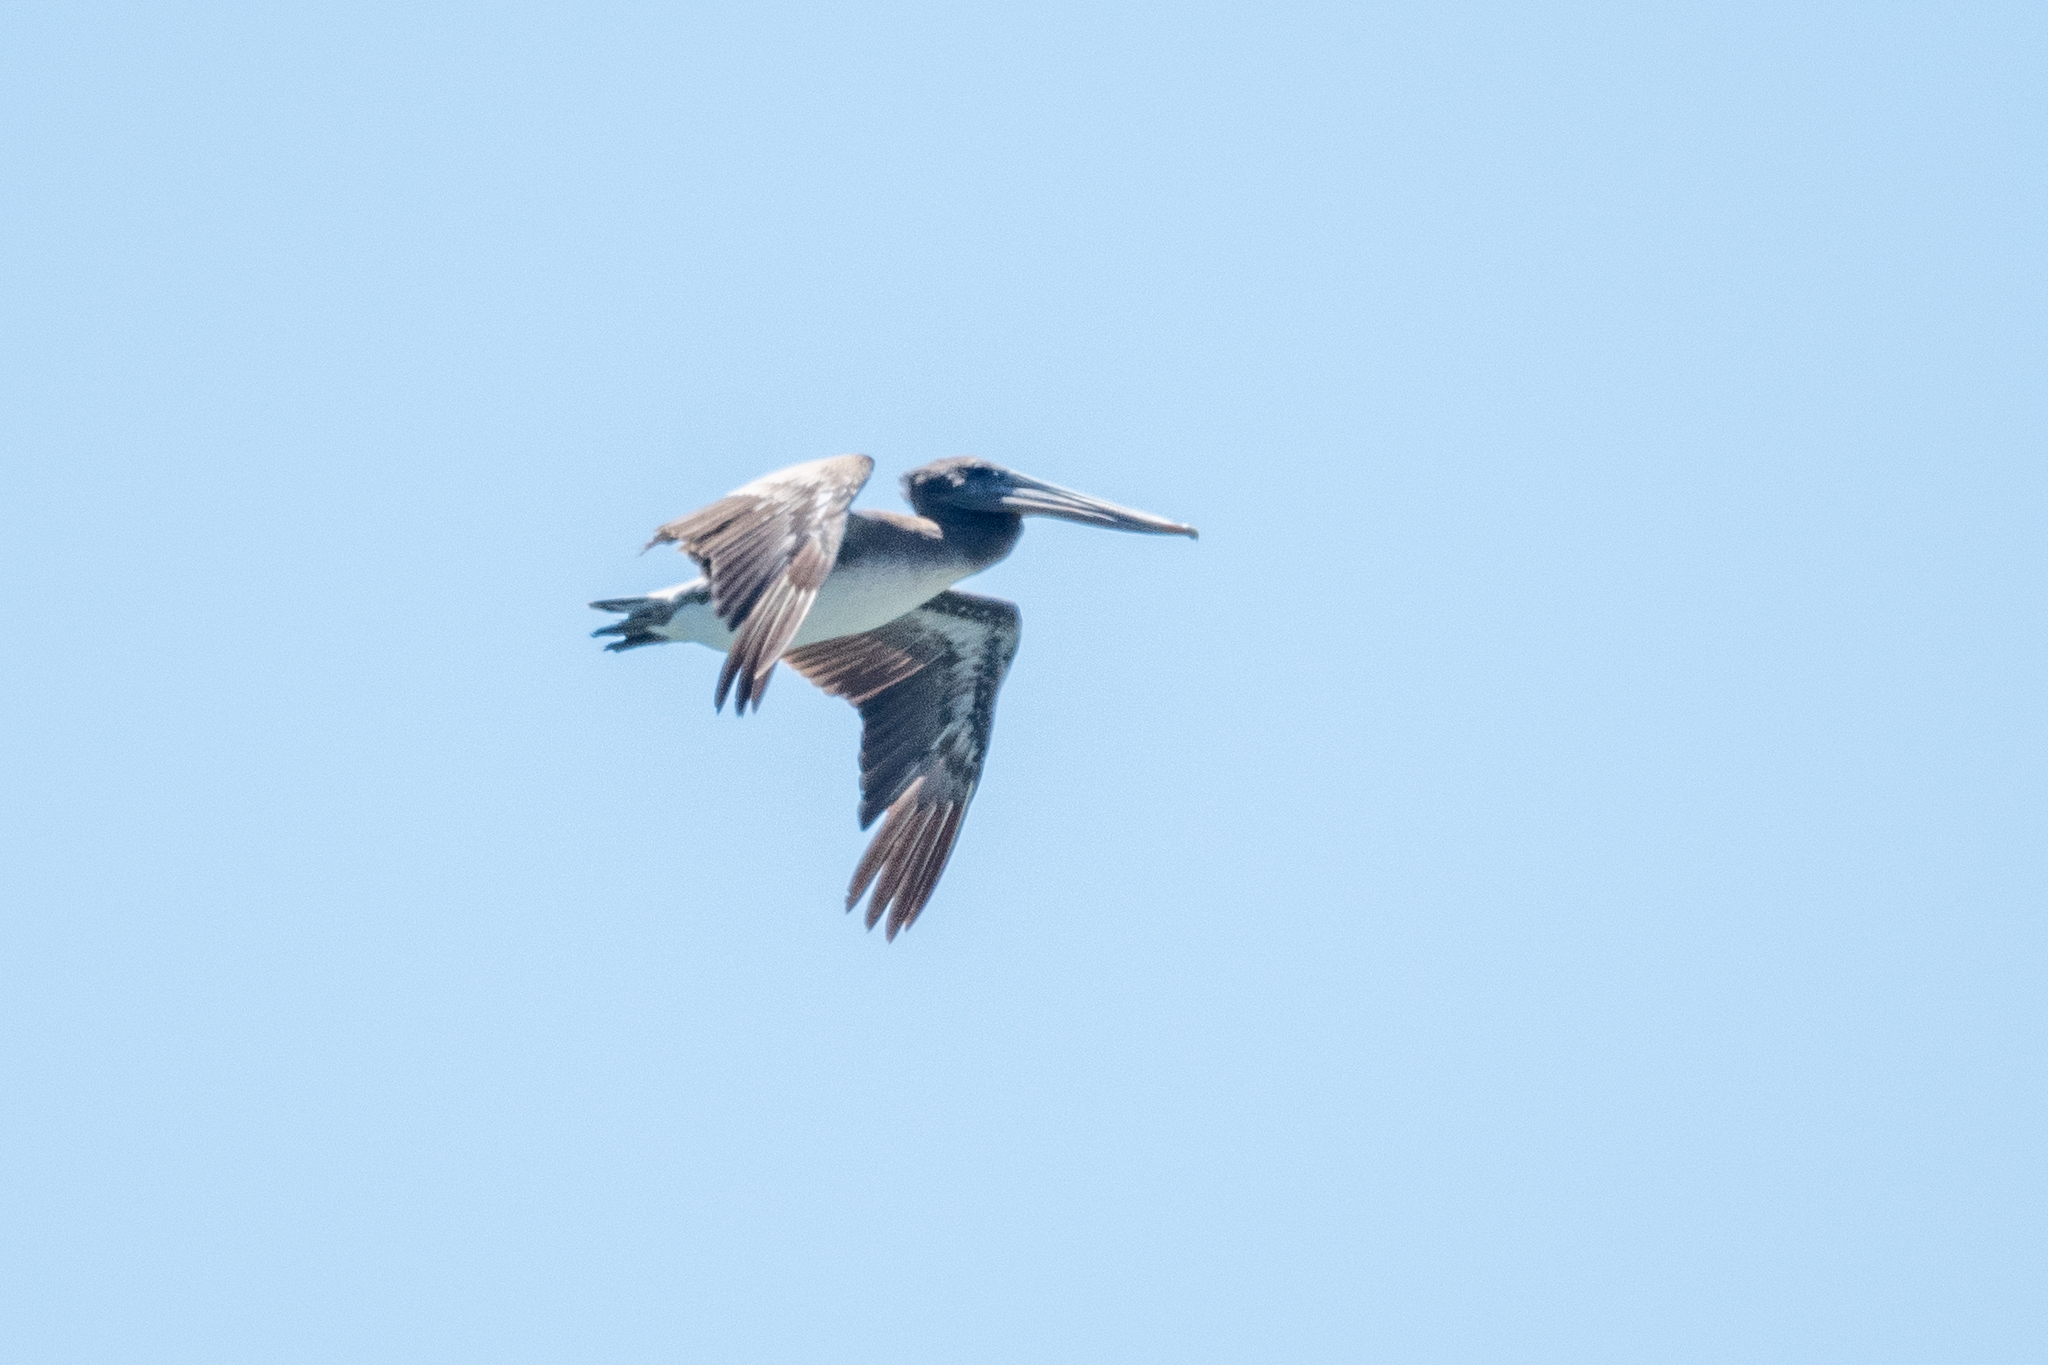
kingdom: Animalia
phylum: Chordata
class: Aves
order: Pelecaniformes
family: Pelecanidae
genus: Pelecanus
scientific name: Pelecanus occidentalis
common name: Brown pelican
